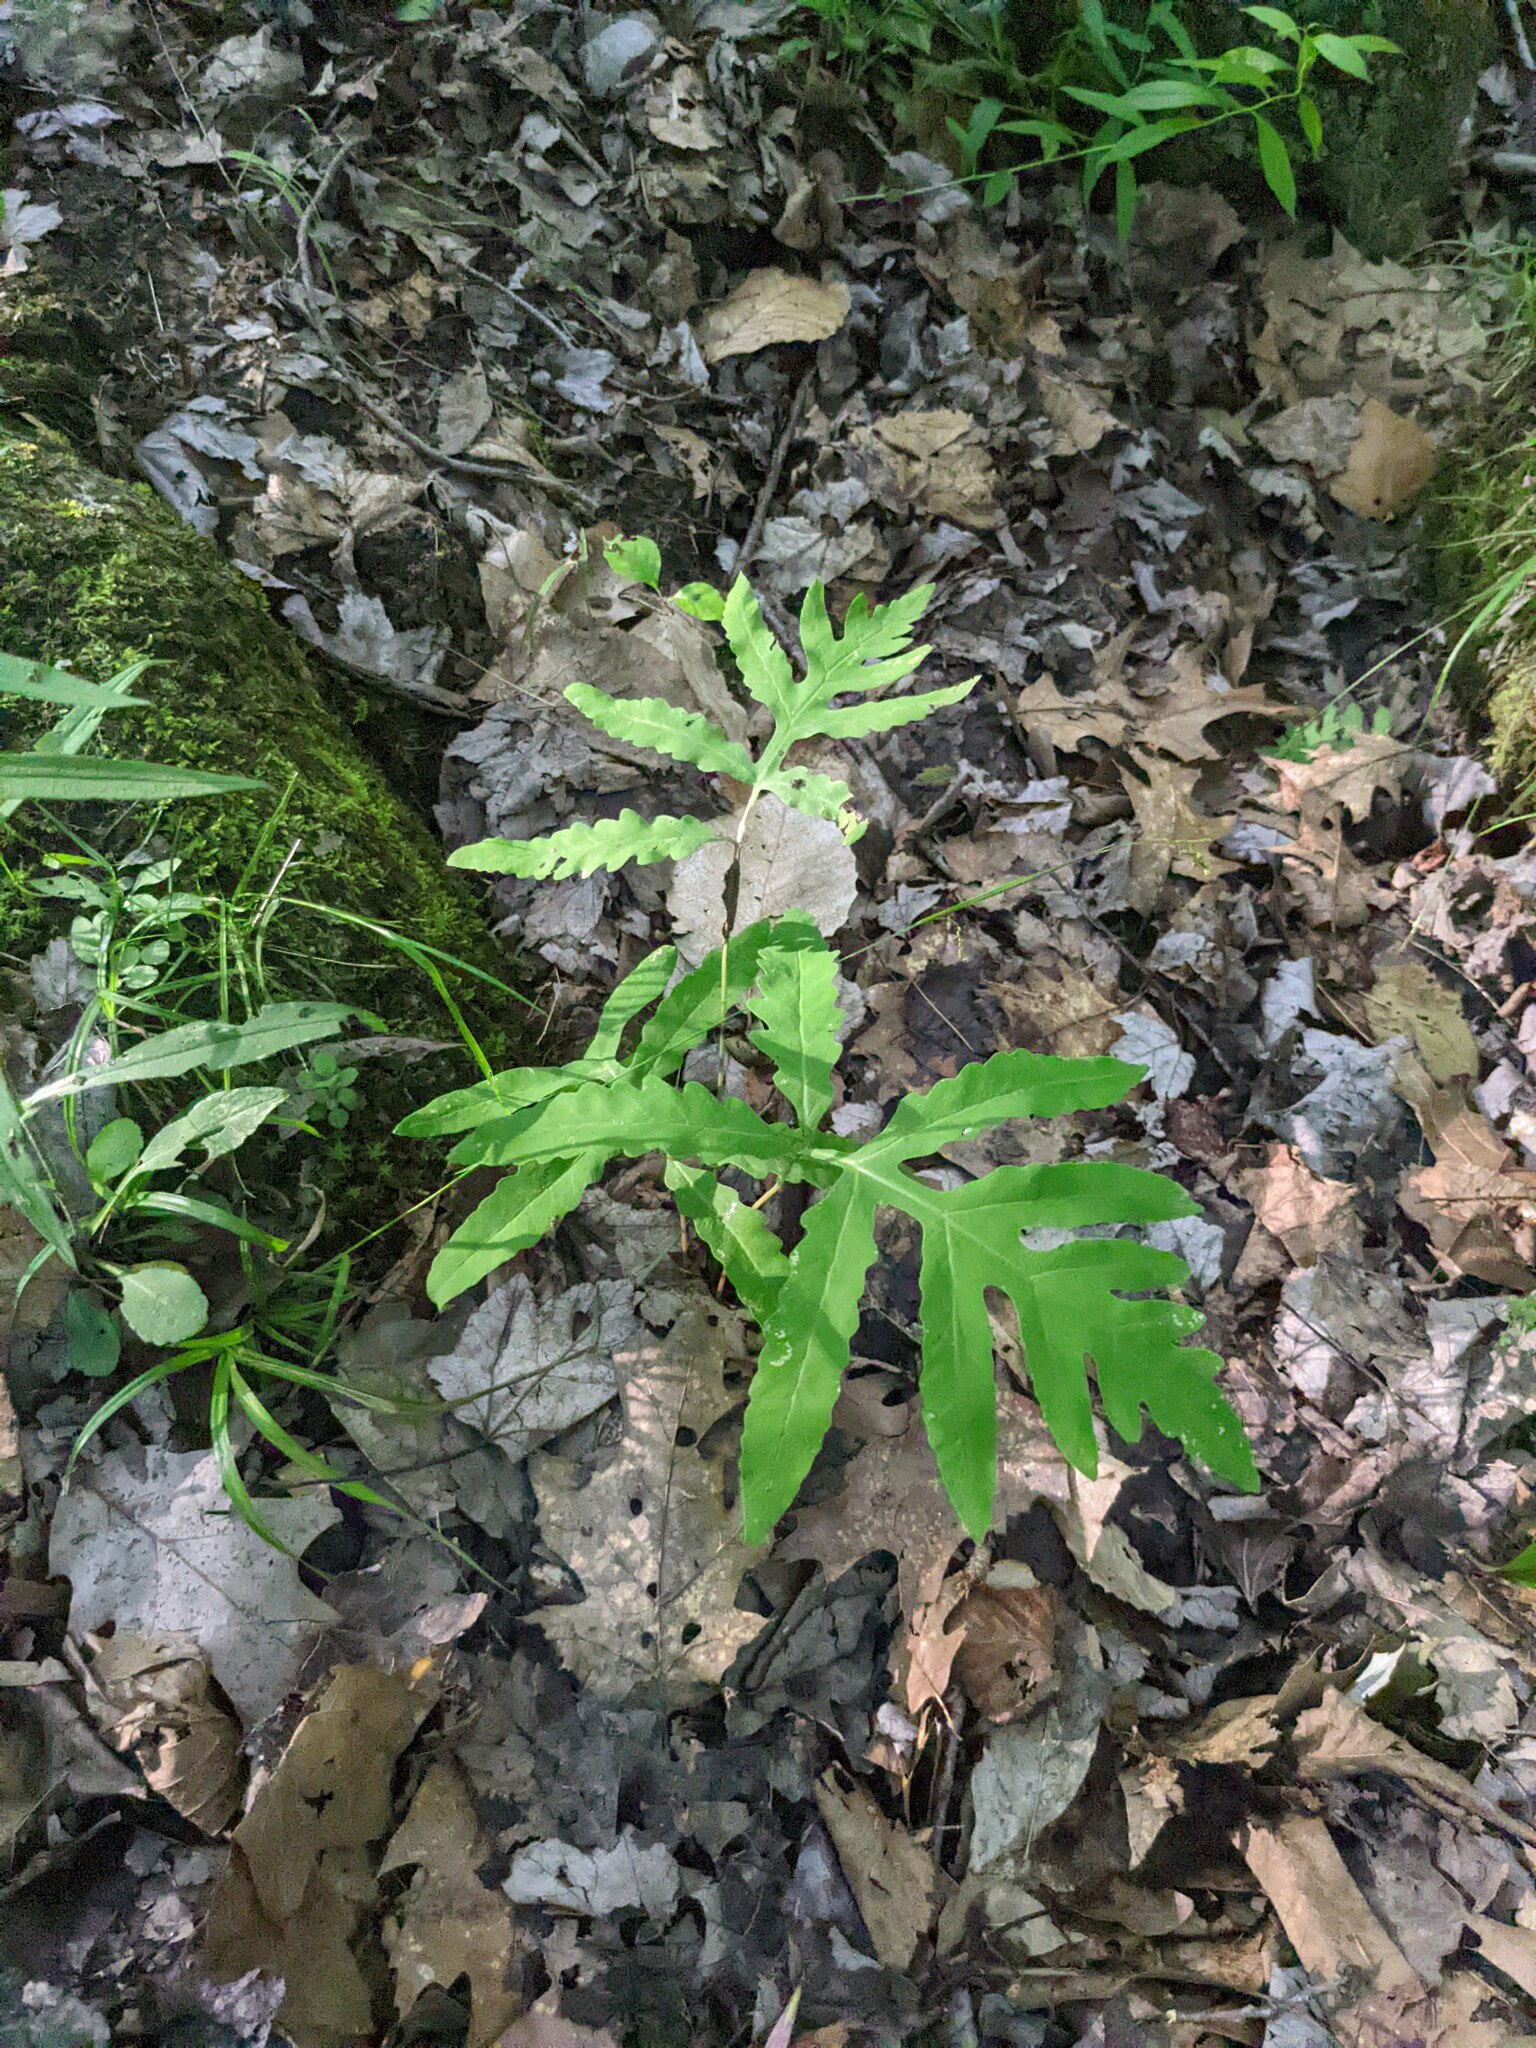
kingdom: Plantae
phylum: Tracheophyta
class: Polypodiopsida
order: Polypodiales
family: Onocleaceae
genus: Onoclea
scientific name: Onoclea sensibilis
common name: Sensitive fern
